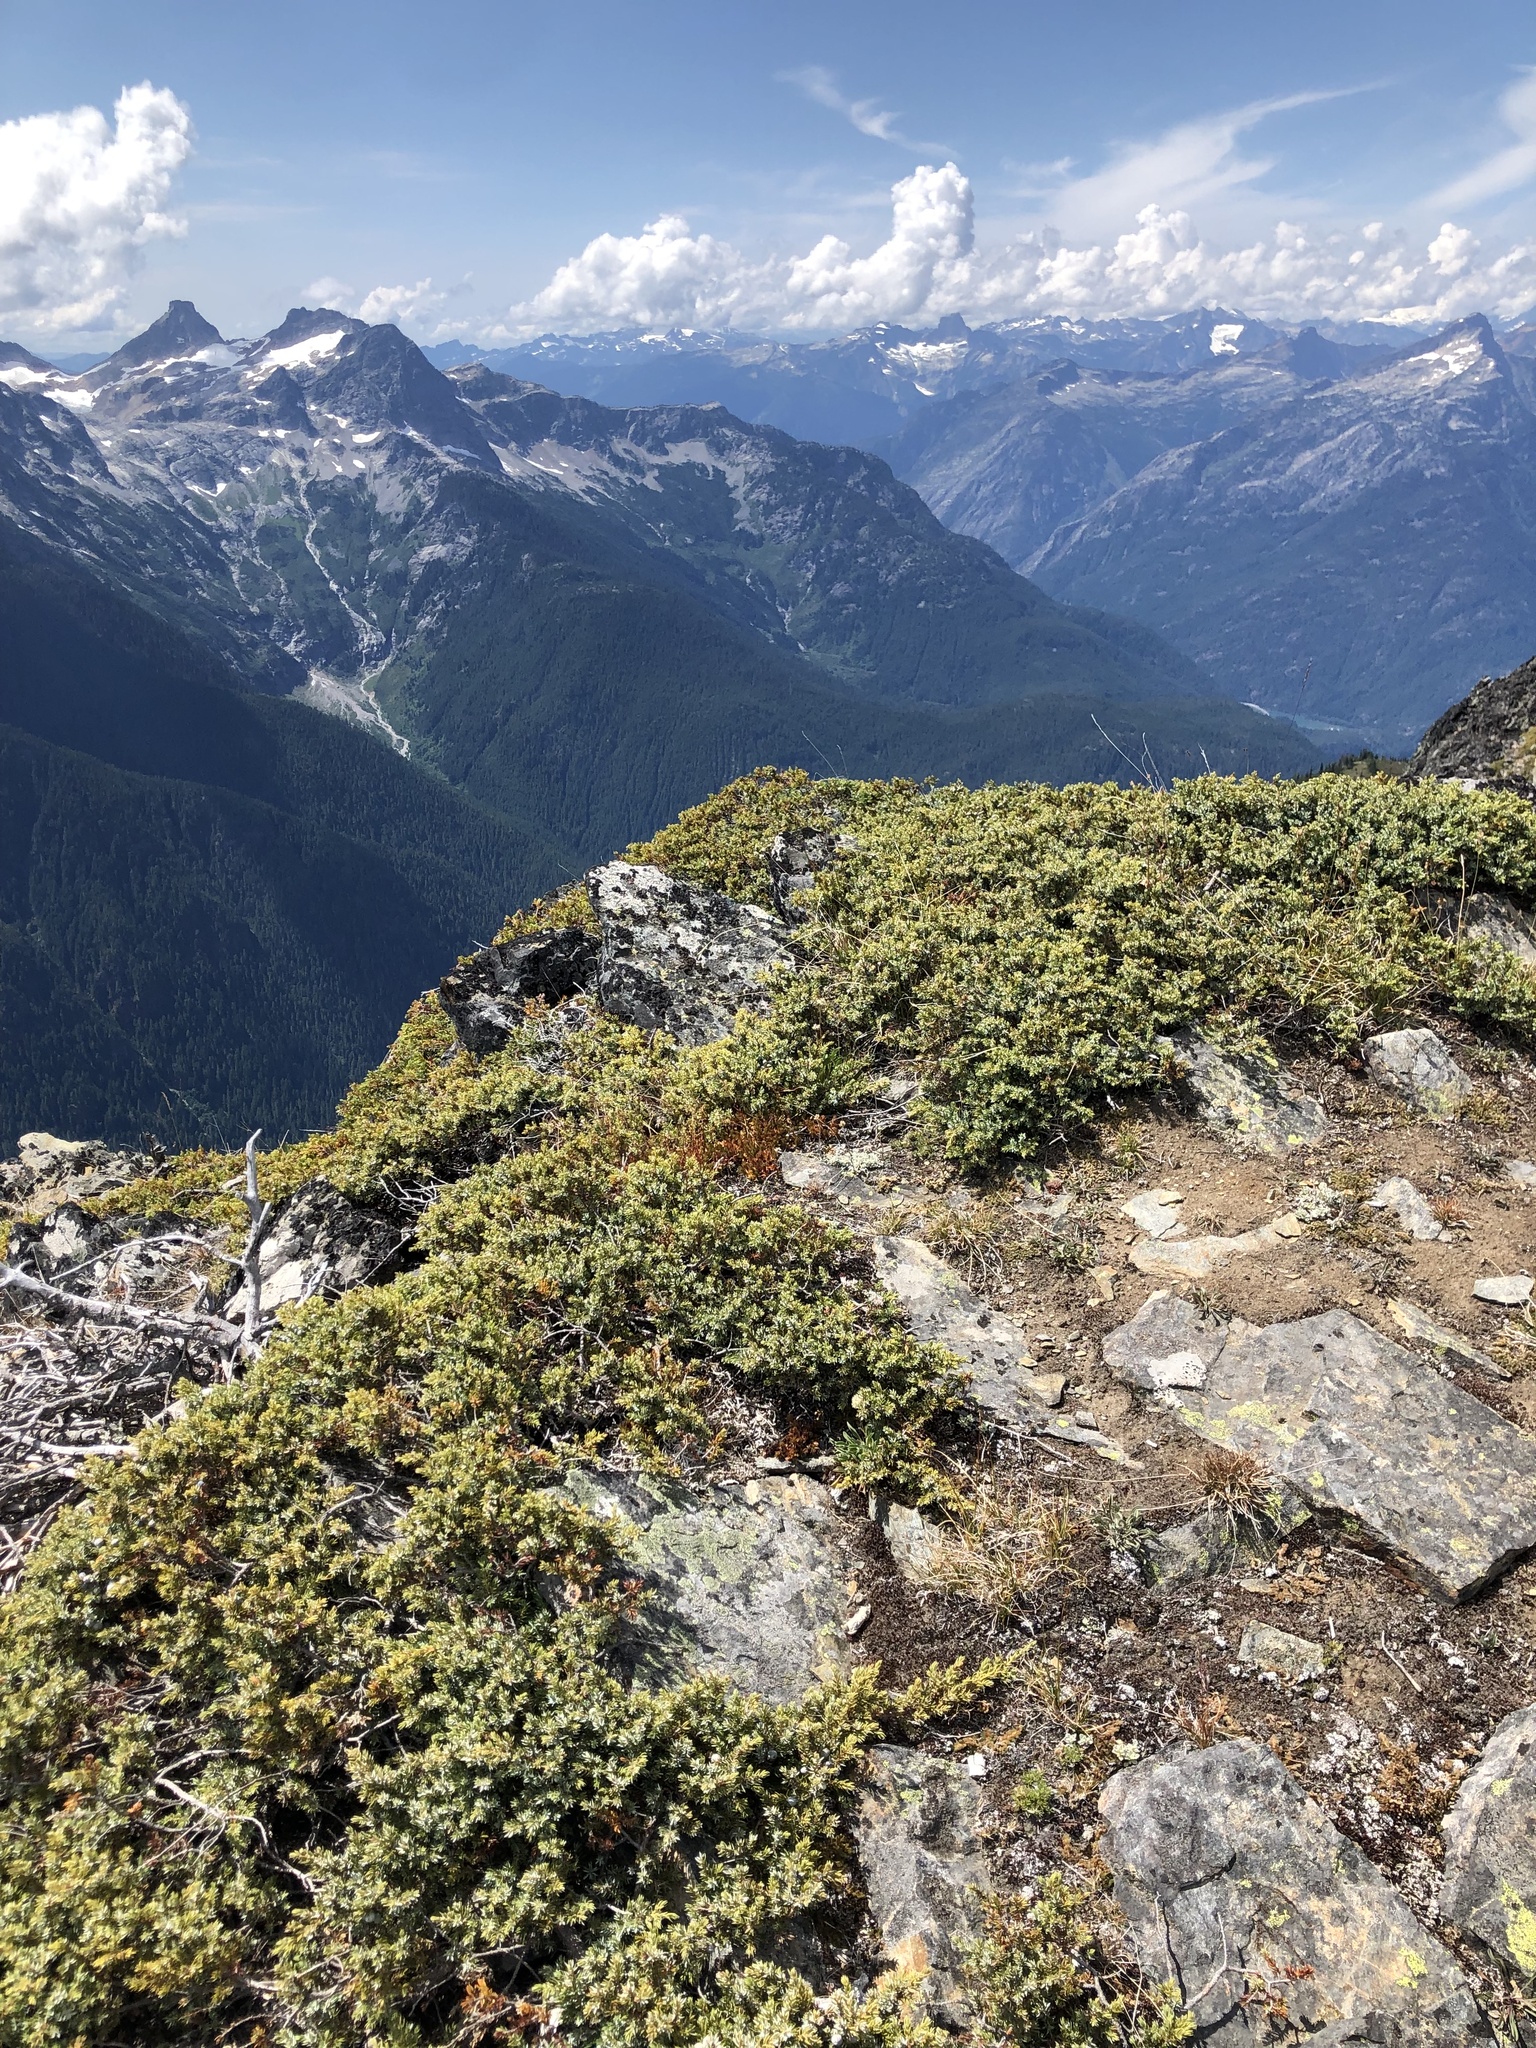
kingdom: Plantae
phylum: Tracheophyta
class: Pinopsida
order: Pinales
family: Cupressaceae
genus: Juniperus
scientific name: Juniperus communis
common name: Common juniper
